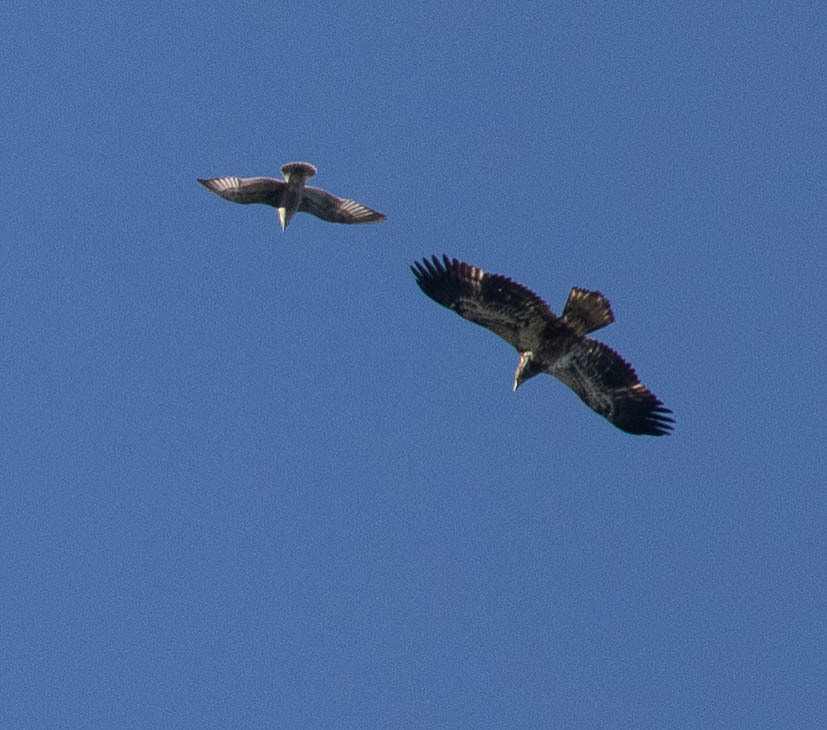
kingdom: Animalia
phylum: Chordata
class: Aves
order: Accipitriformes
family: Accipitridae
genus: Haliaeetus
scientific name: Haliaeetus leucocephalus
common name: Bald eagle
